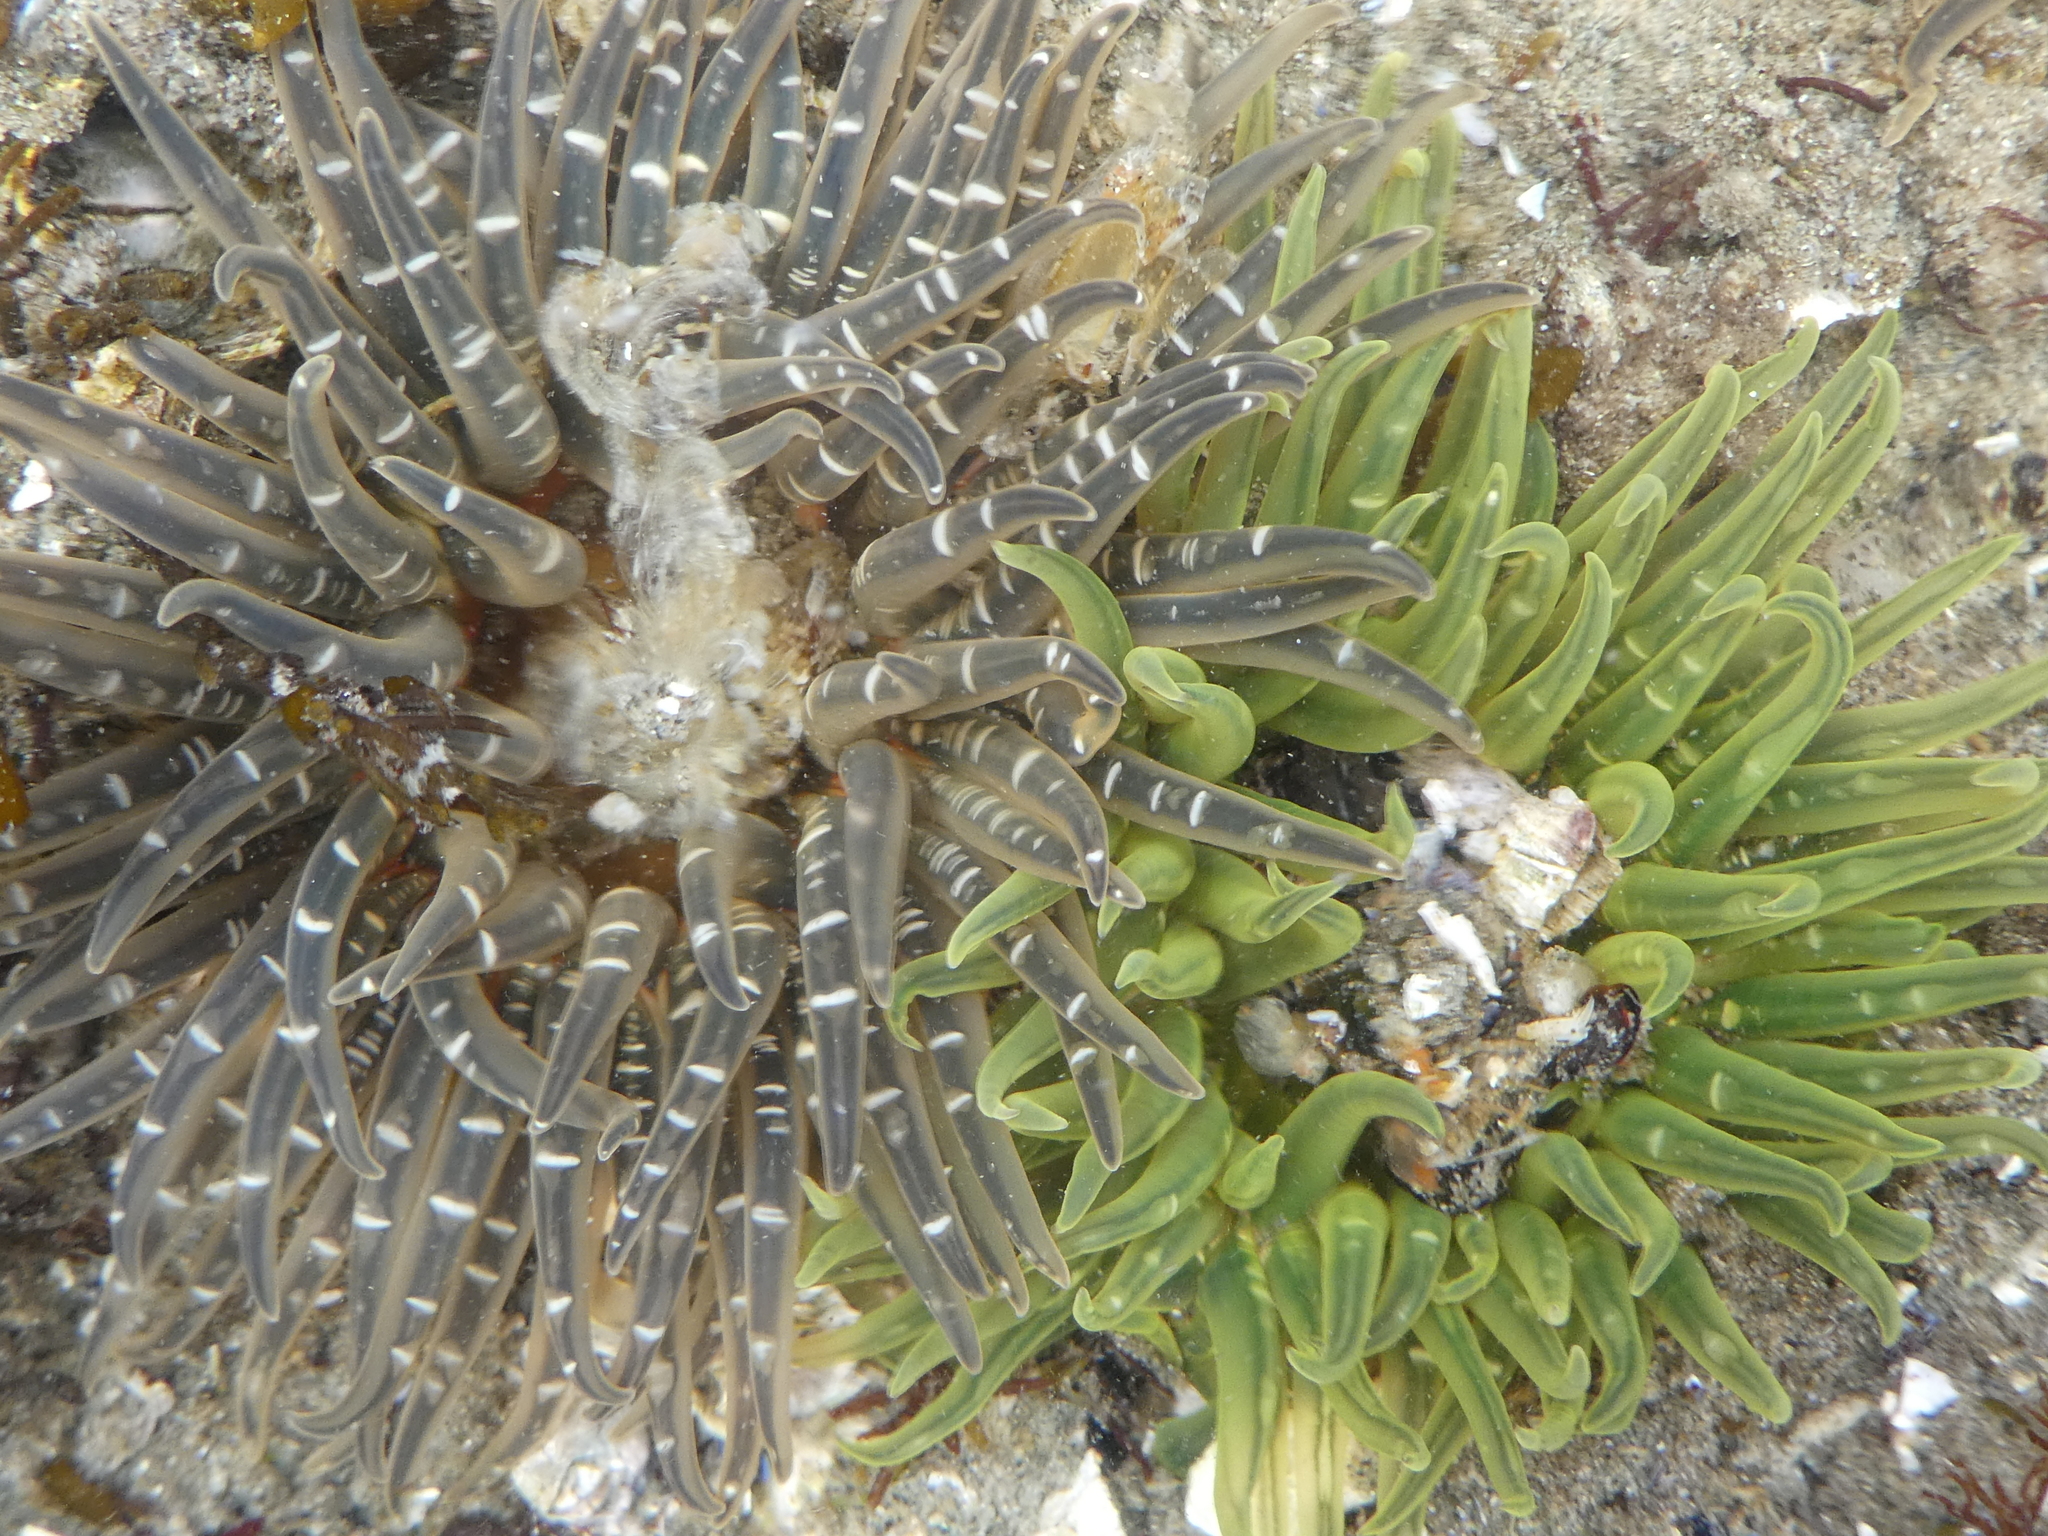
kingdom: Animalia
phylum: Cnidaria
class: Anthozoa
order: Actiniaria
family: Actiniidae
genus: Anthopleura
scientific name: Anthopleura artemisia
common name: Buried sea anemone
